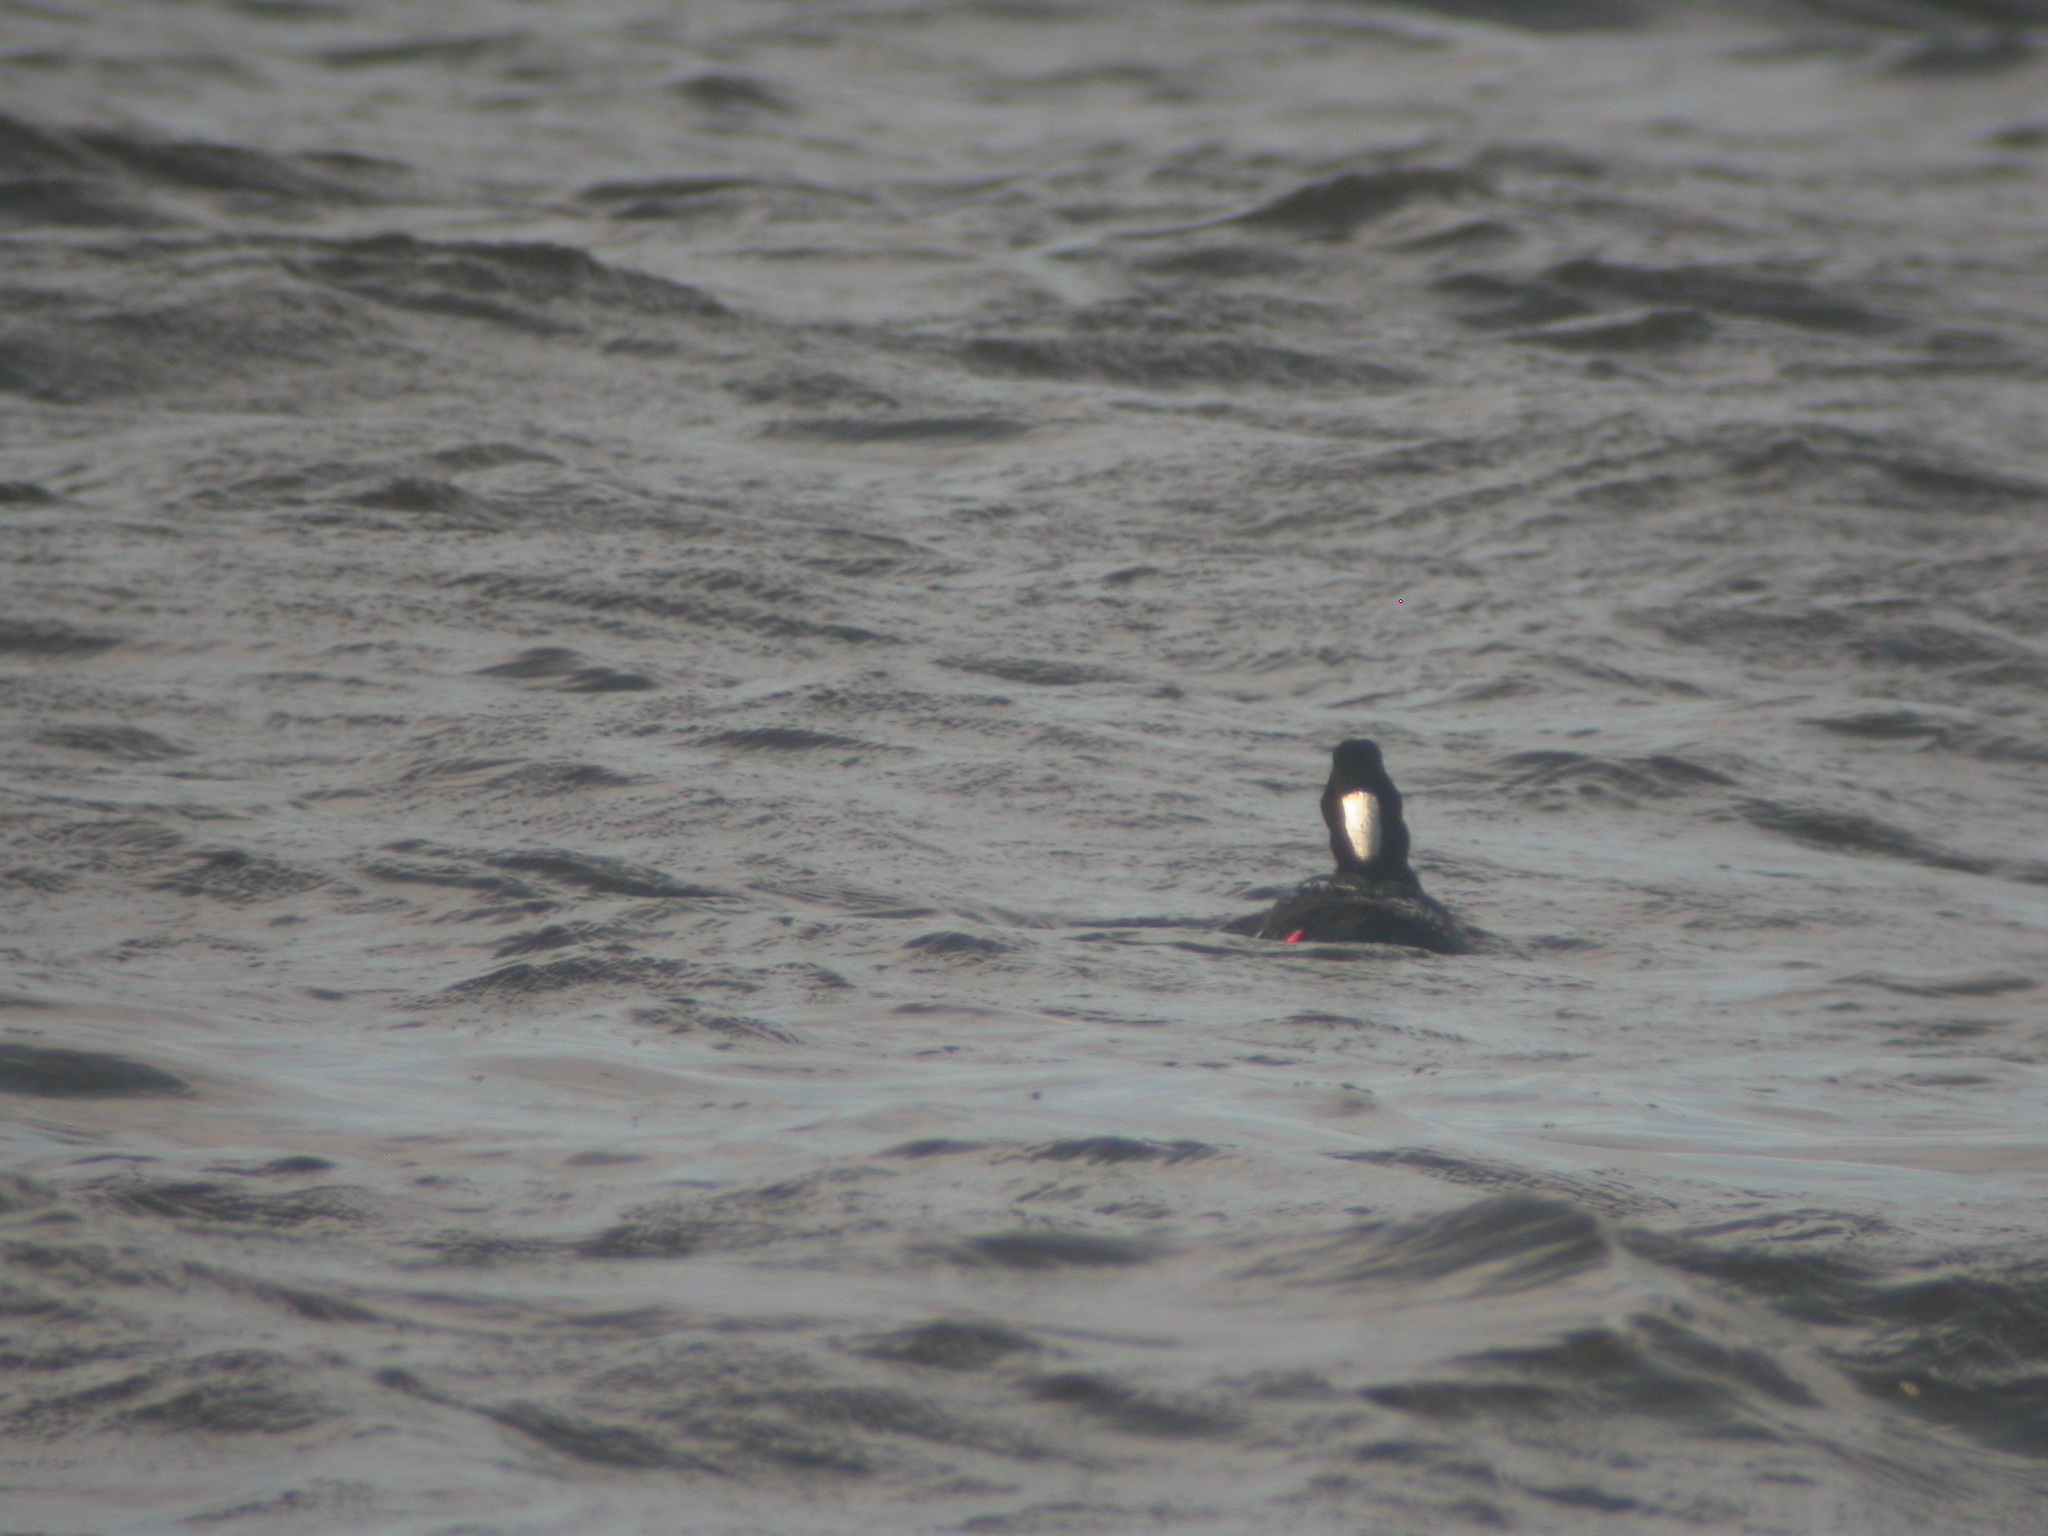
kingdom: Animalia
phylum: Chordata
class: Aves
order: Anseriformes
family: Anatidae
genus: Melanitta
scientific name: Melanitta perspicillata
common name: Surf scoter
